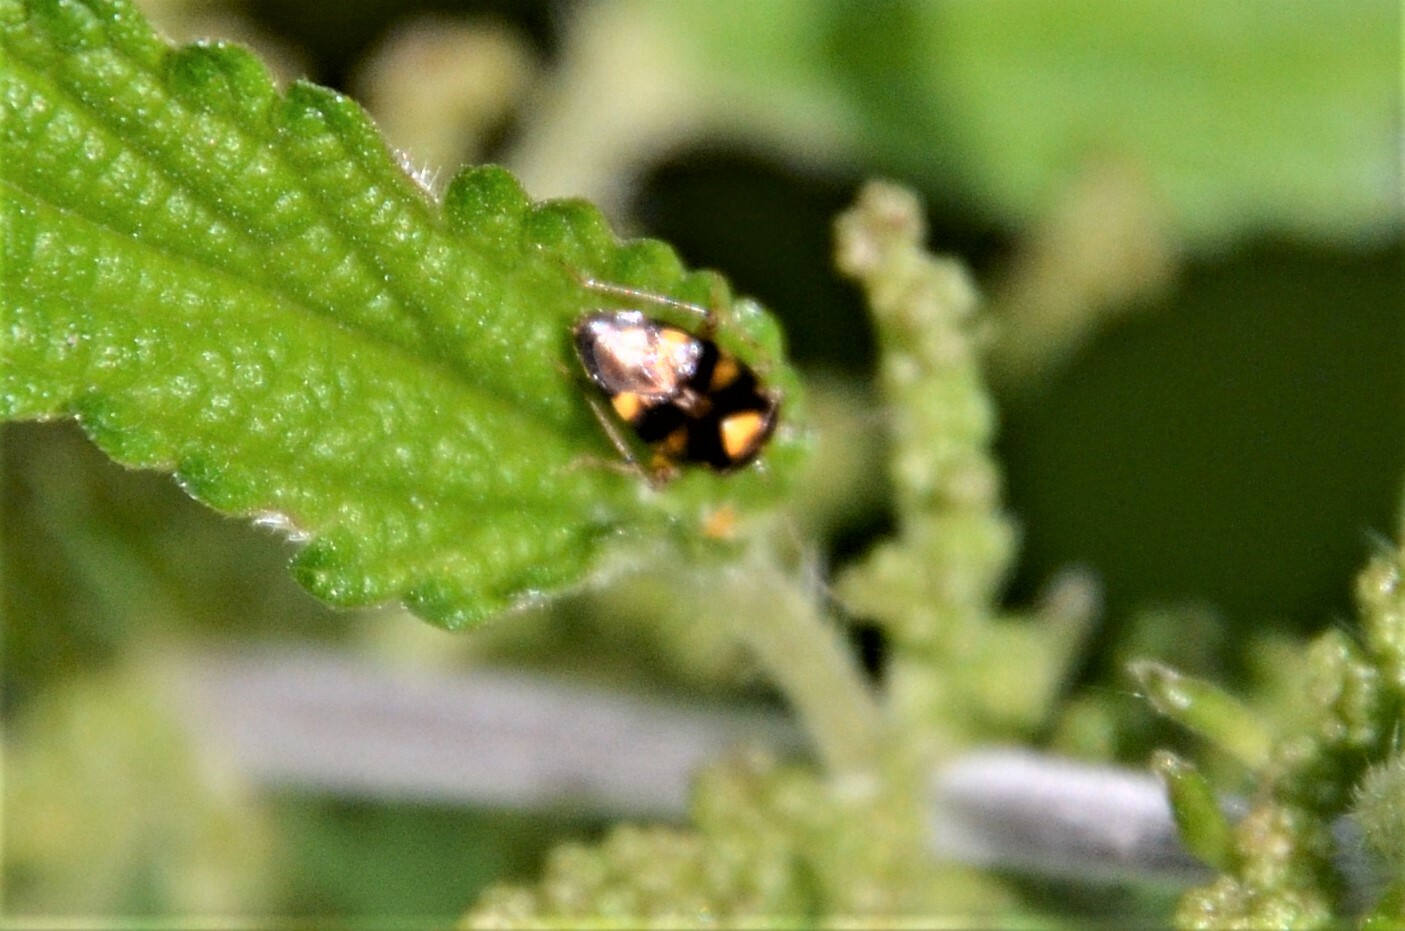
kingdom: Animalia
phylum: Arthropoda
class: Insecta
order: Hemiptera
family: Miridae
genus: Liocoris
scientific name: Liocoris tripustulatus
